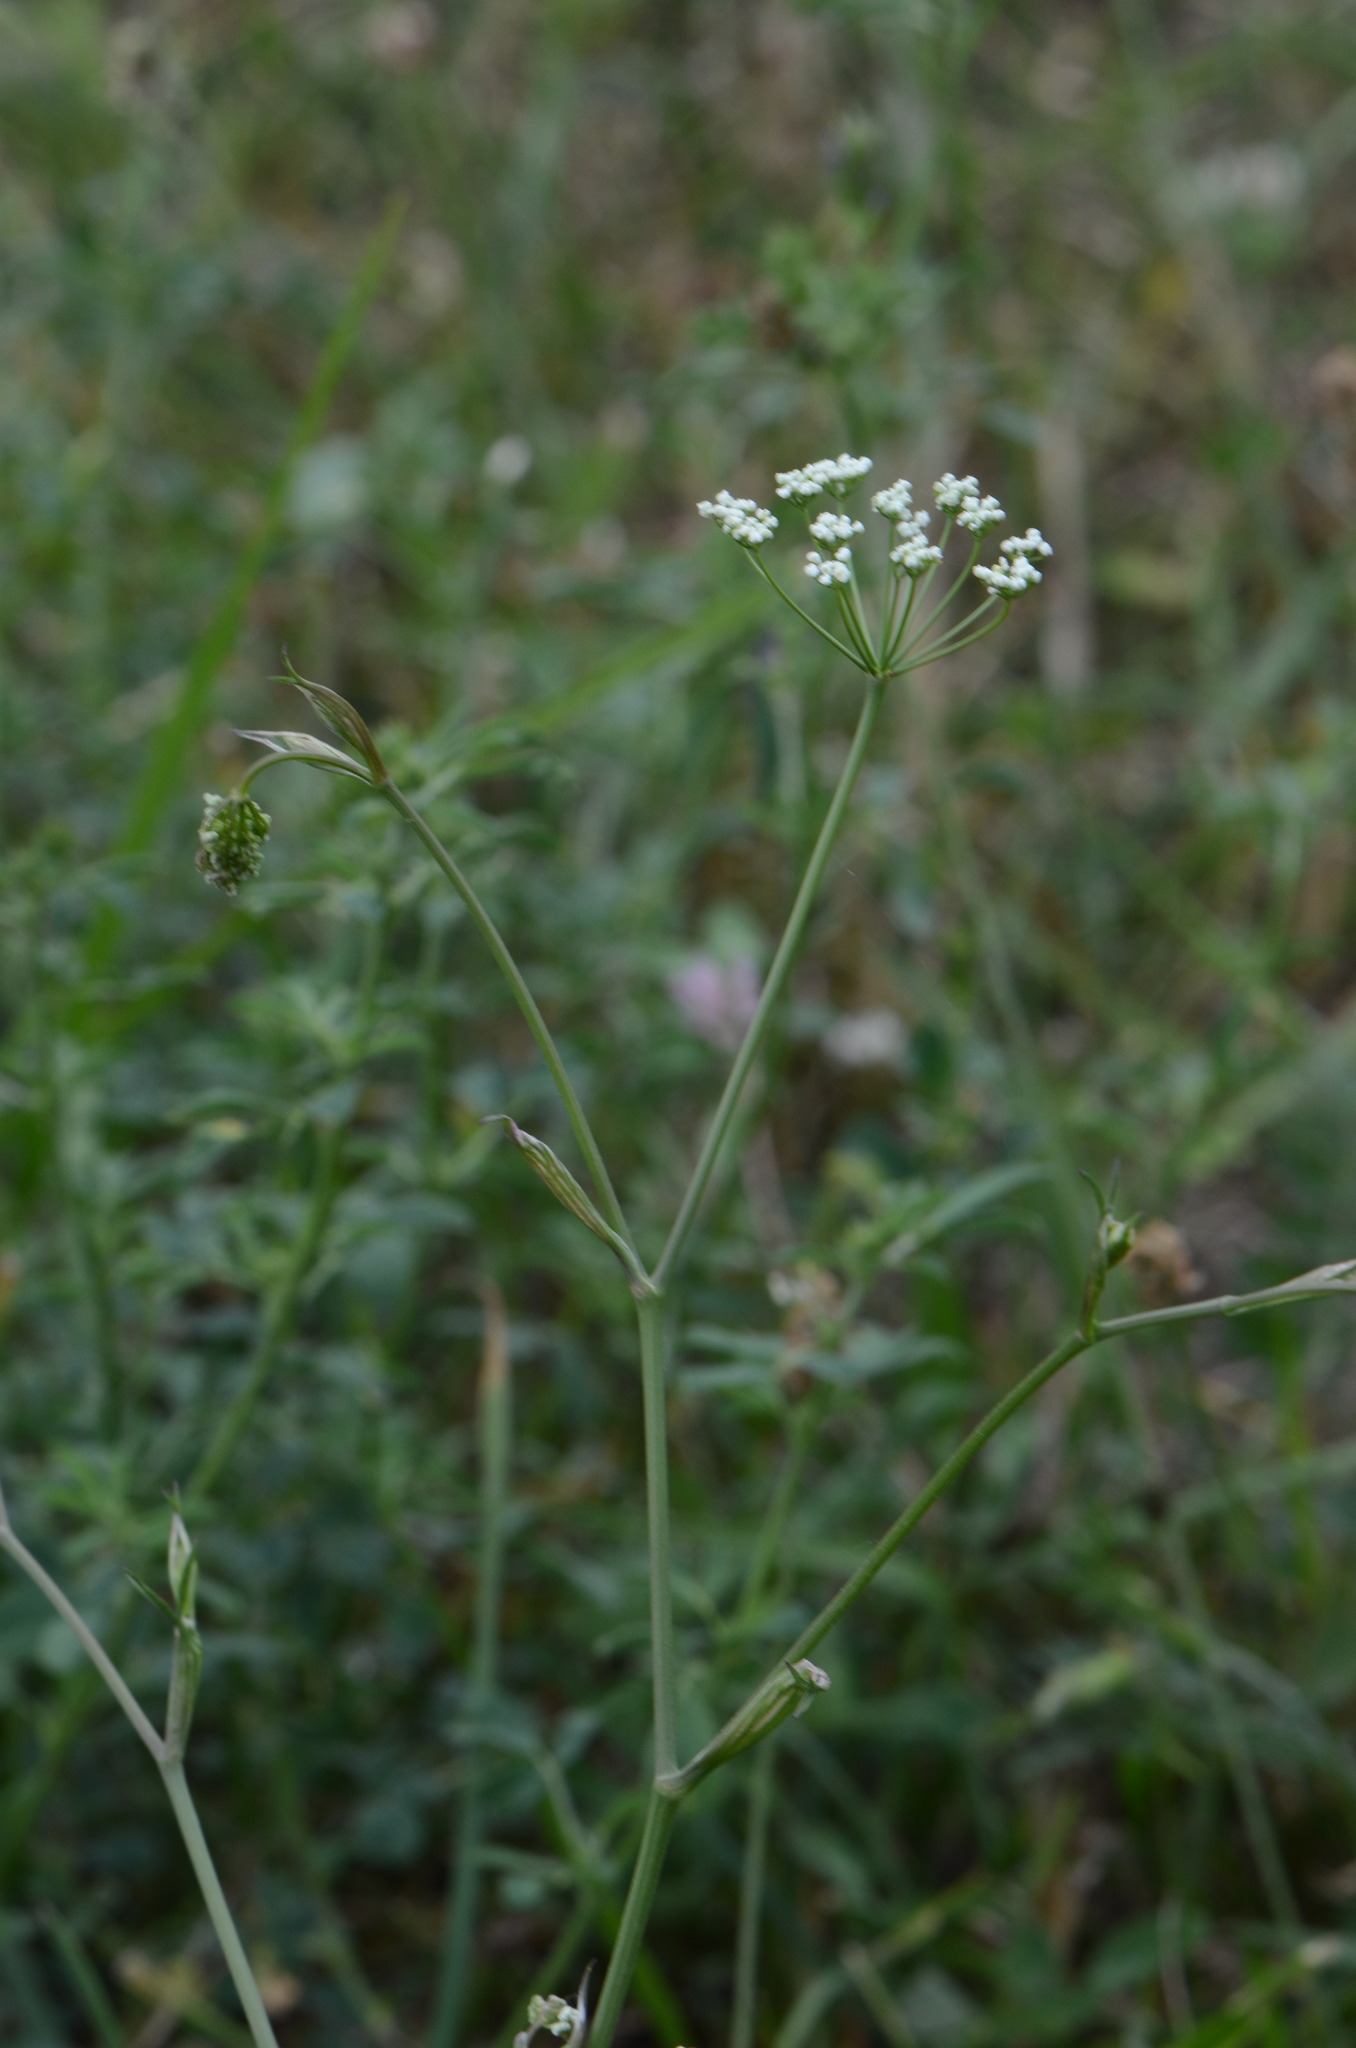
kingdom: Plantae
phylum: Tracheophyta
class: Magnoliopsida
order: Apiales
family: Apiaceae
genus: Pimpinella
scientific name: Pimpinella saxifraga
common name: Burnet-saxifrage
